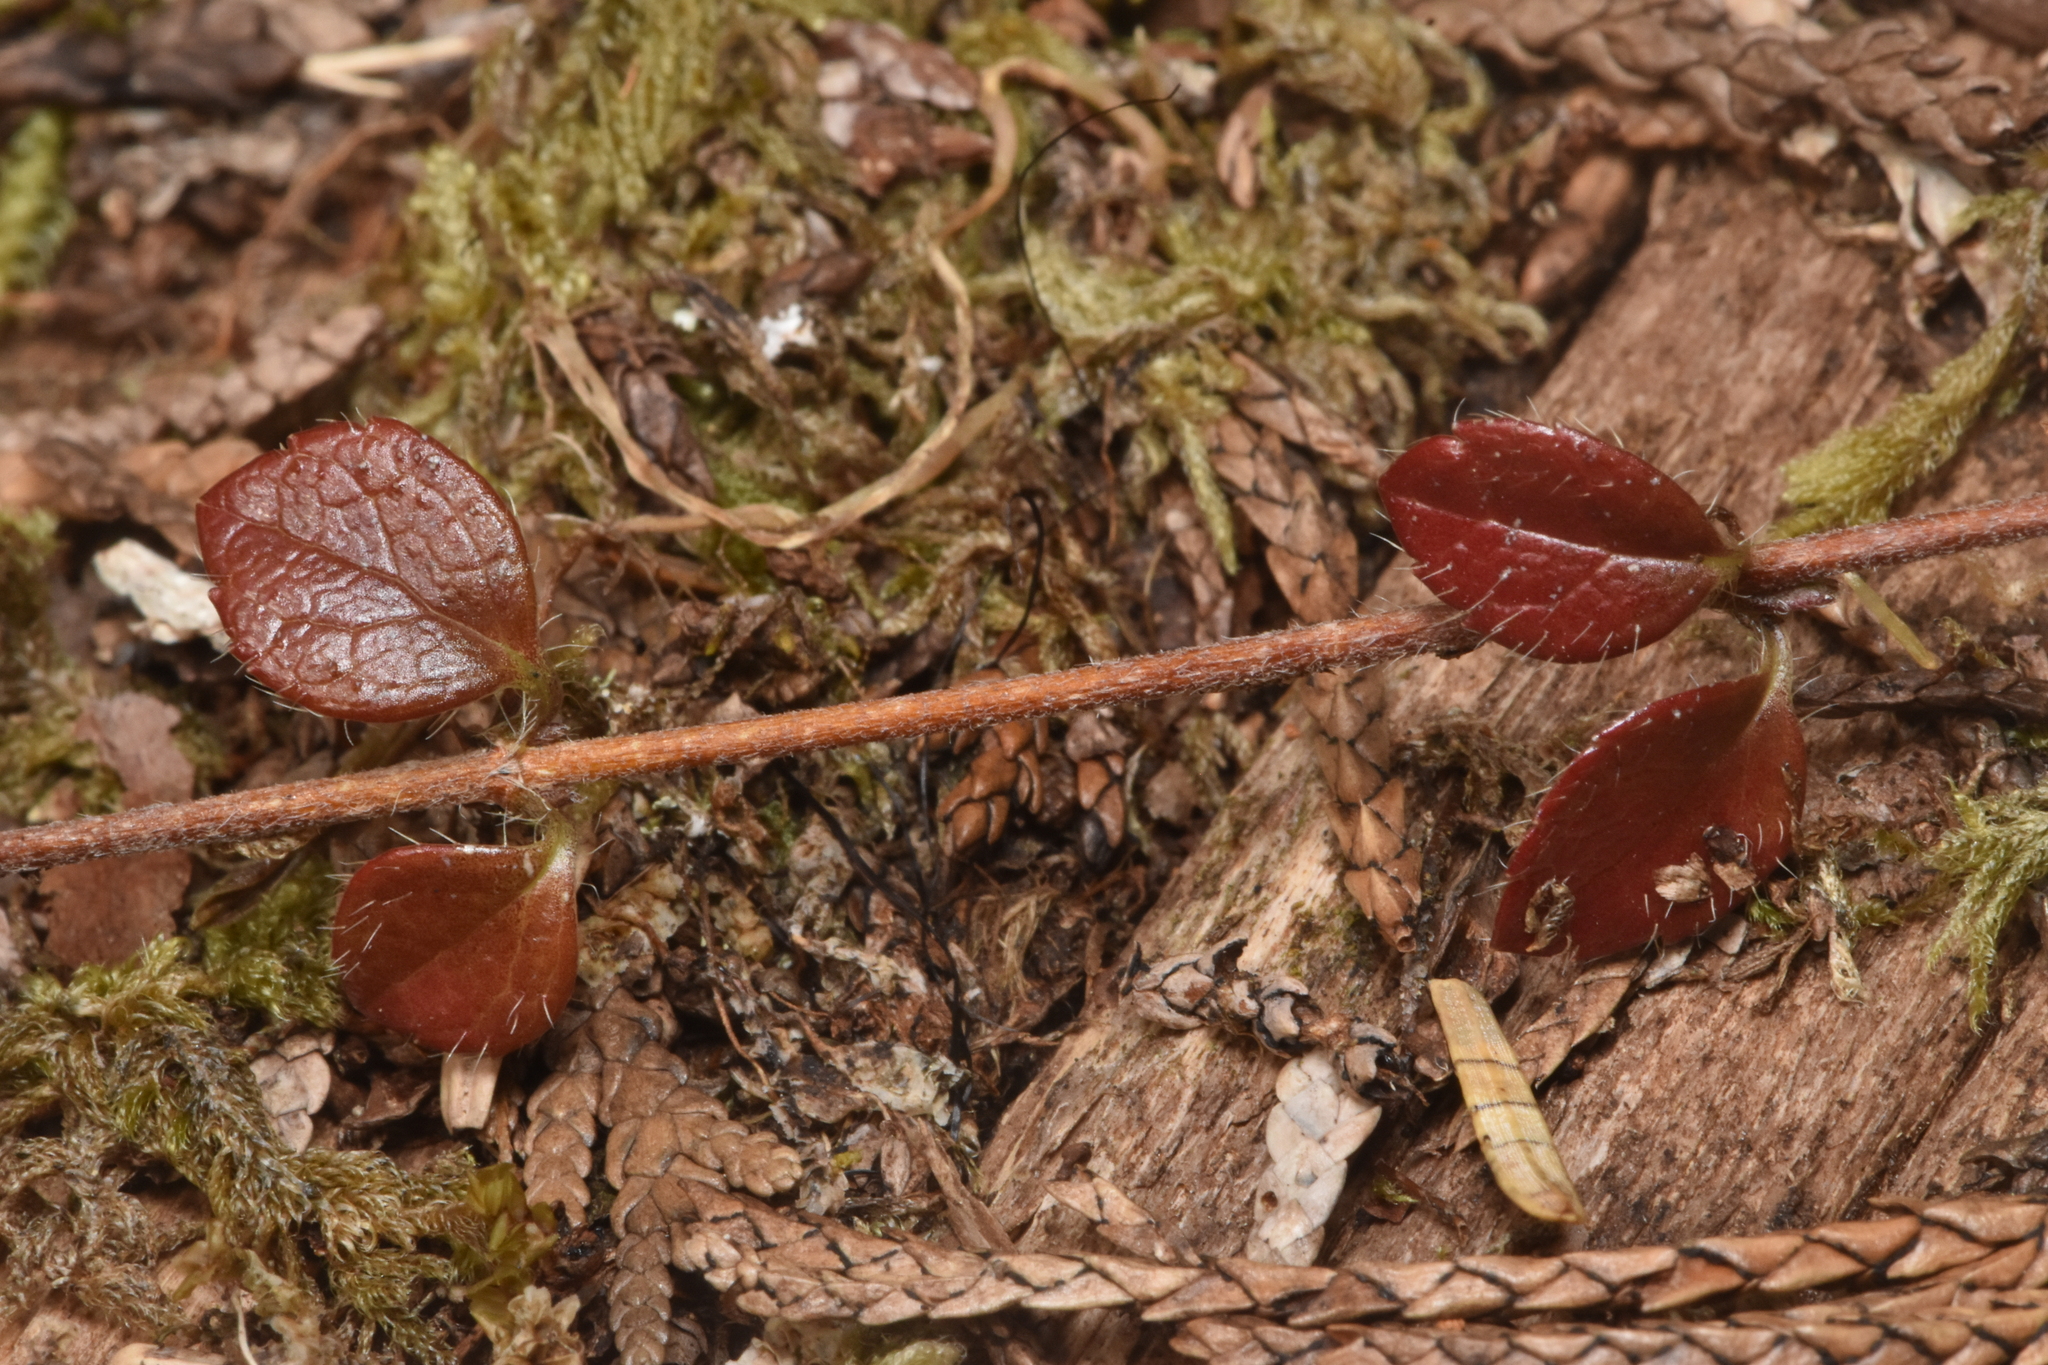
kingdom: Plantae
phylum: Tracheophyta
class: Magnoliopsida
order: Dipsacales
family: Caprifoliaceae
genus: Linnaea
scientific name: Linnaea borealis
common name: Twinflower
